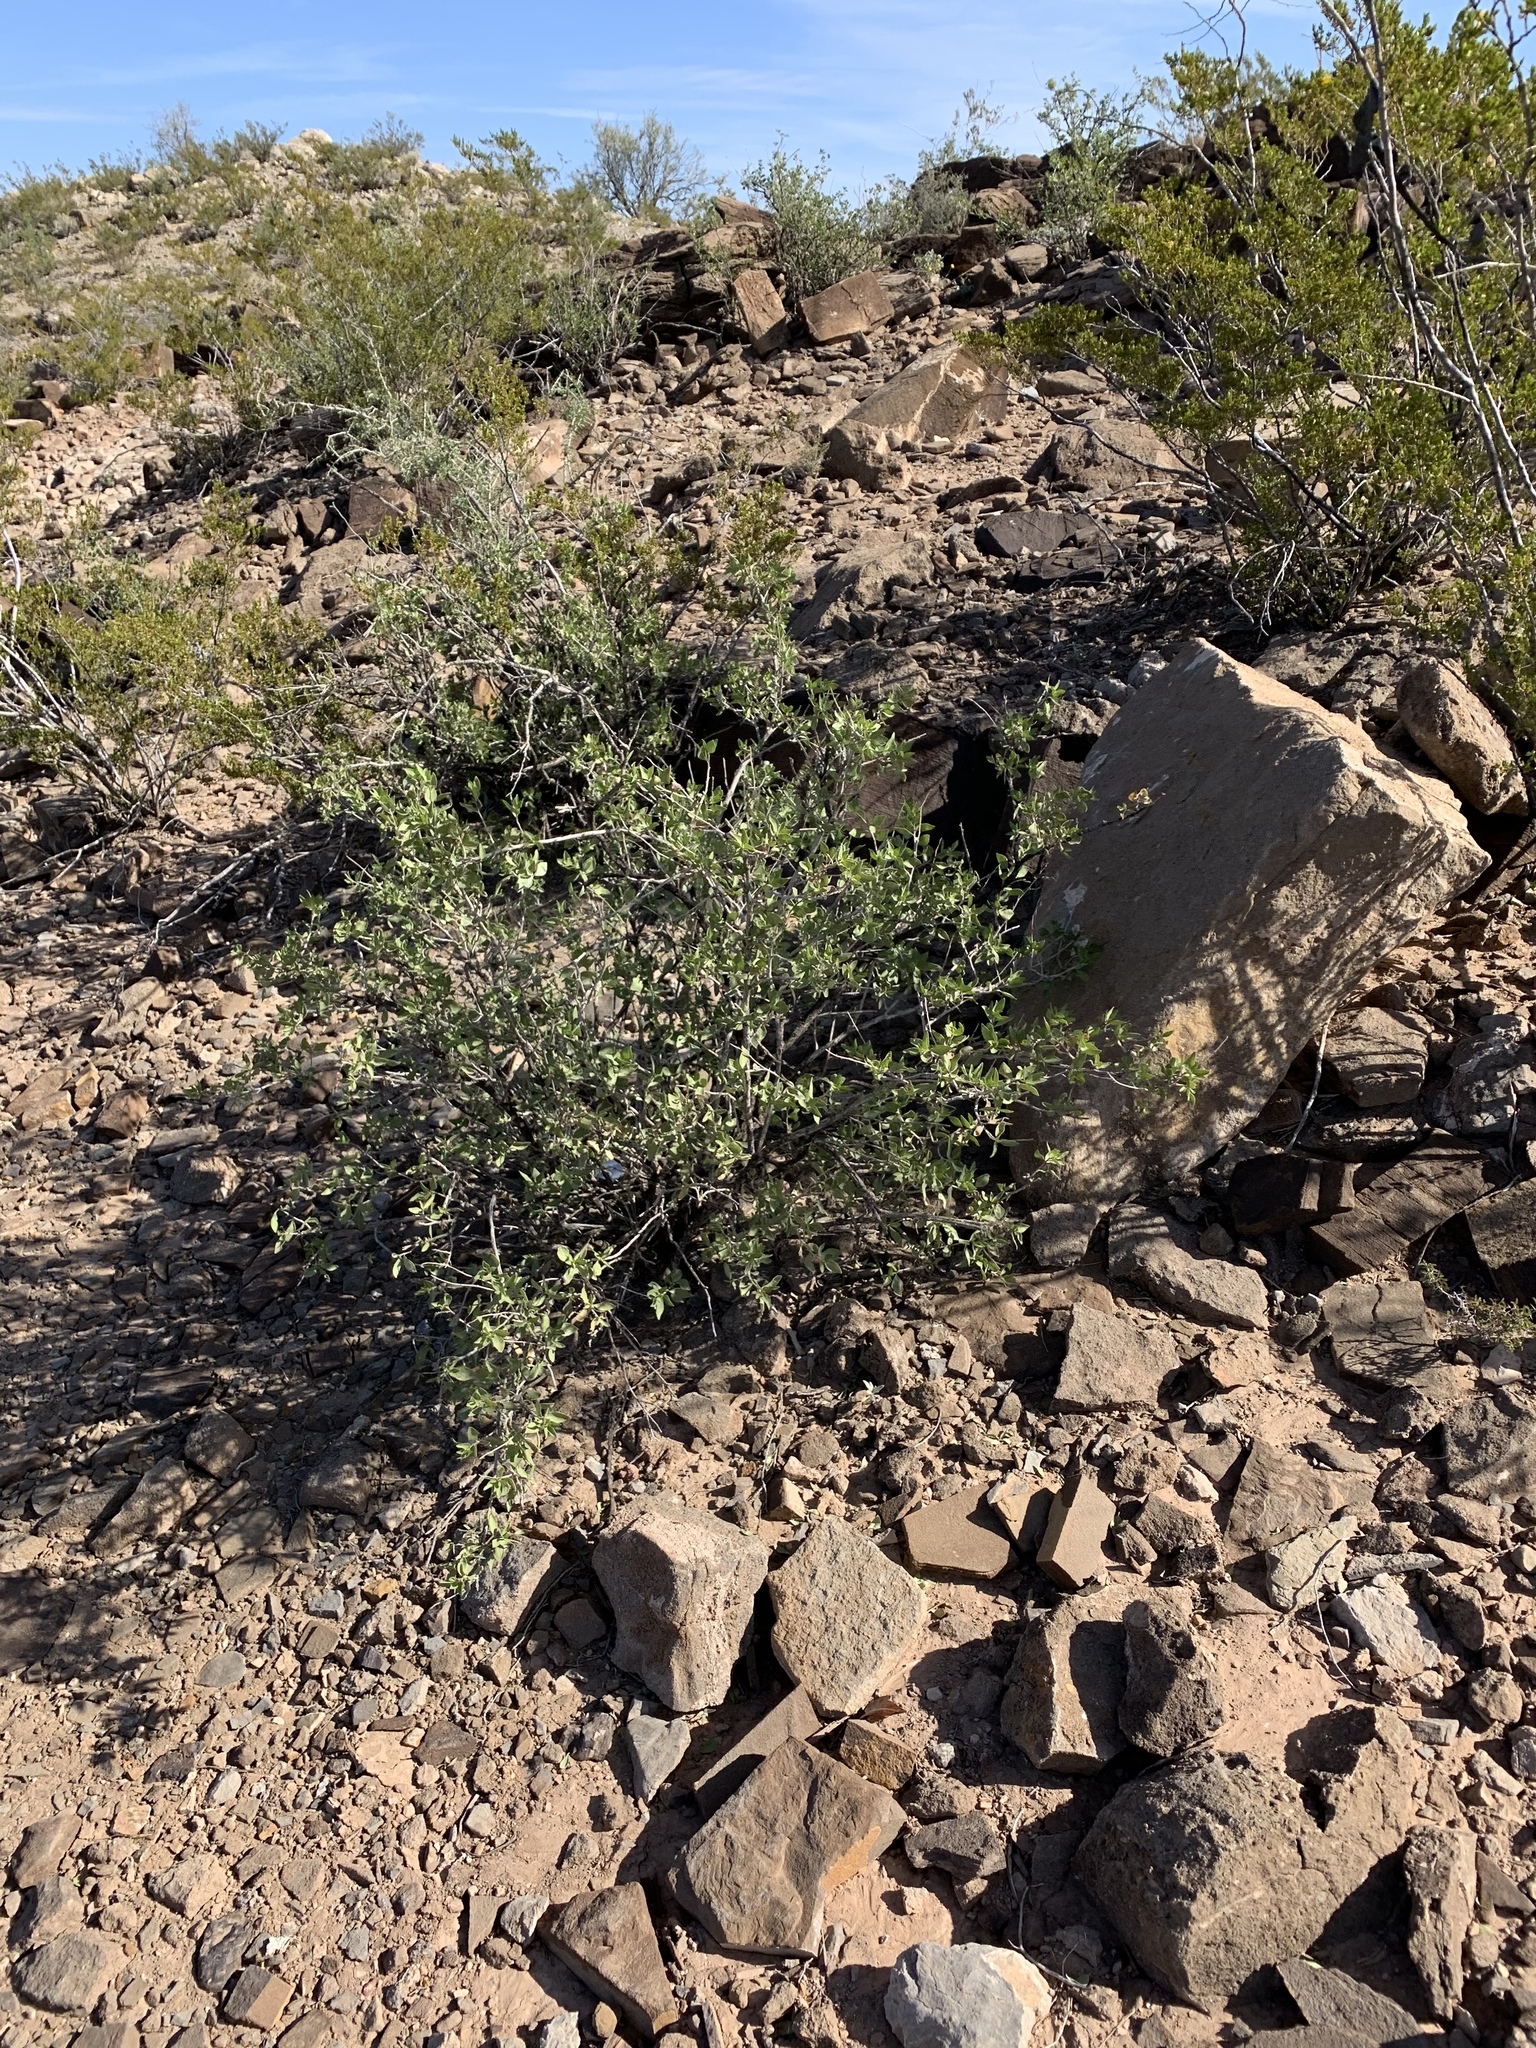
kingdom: Plantae
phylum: Tracheophyta
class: Magnoliopsida
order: Asterales
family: Asteraceae
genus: Flourensia
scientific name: Flourensia cernua
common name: Varnishbush
